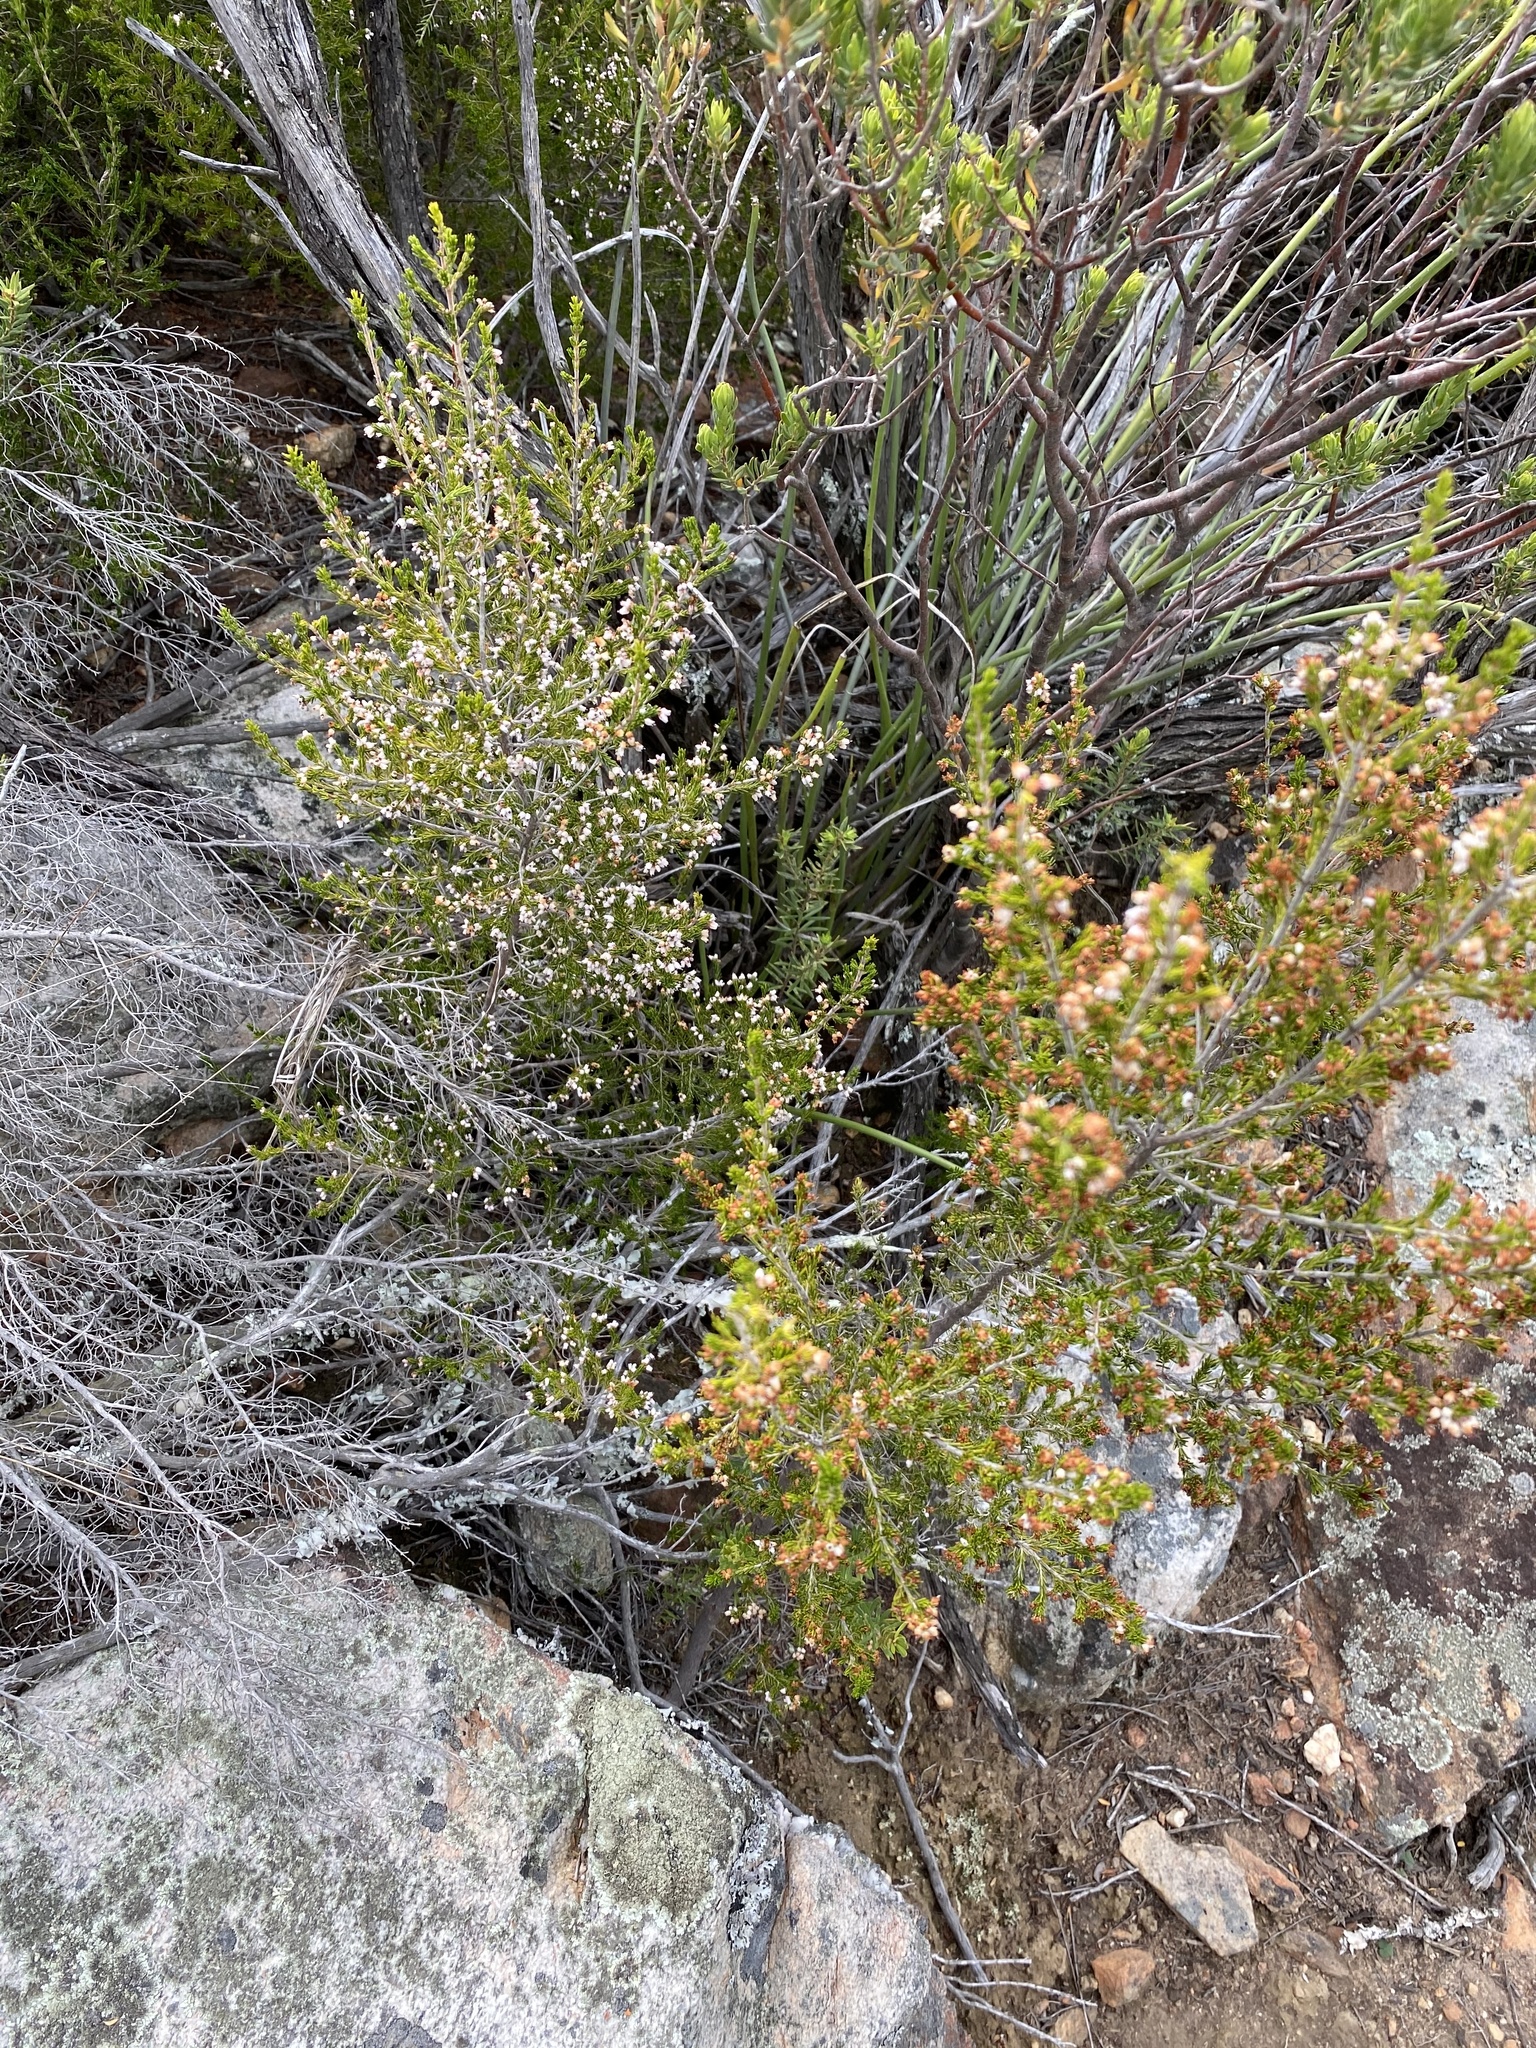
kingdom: Plantae
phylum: Tracheophyta
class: Magnoliopsida
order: Ericales
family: Ericaceae
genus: Erica
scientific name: Erica trivialis
